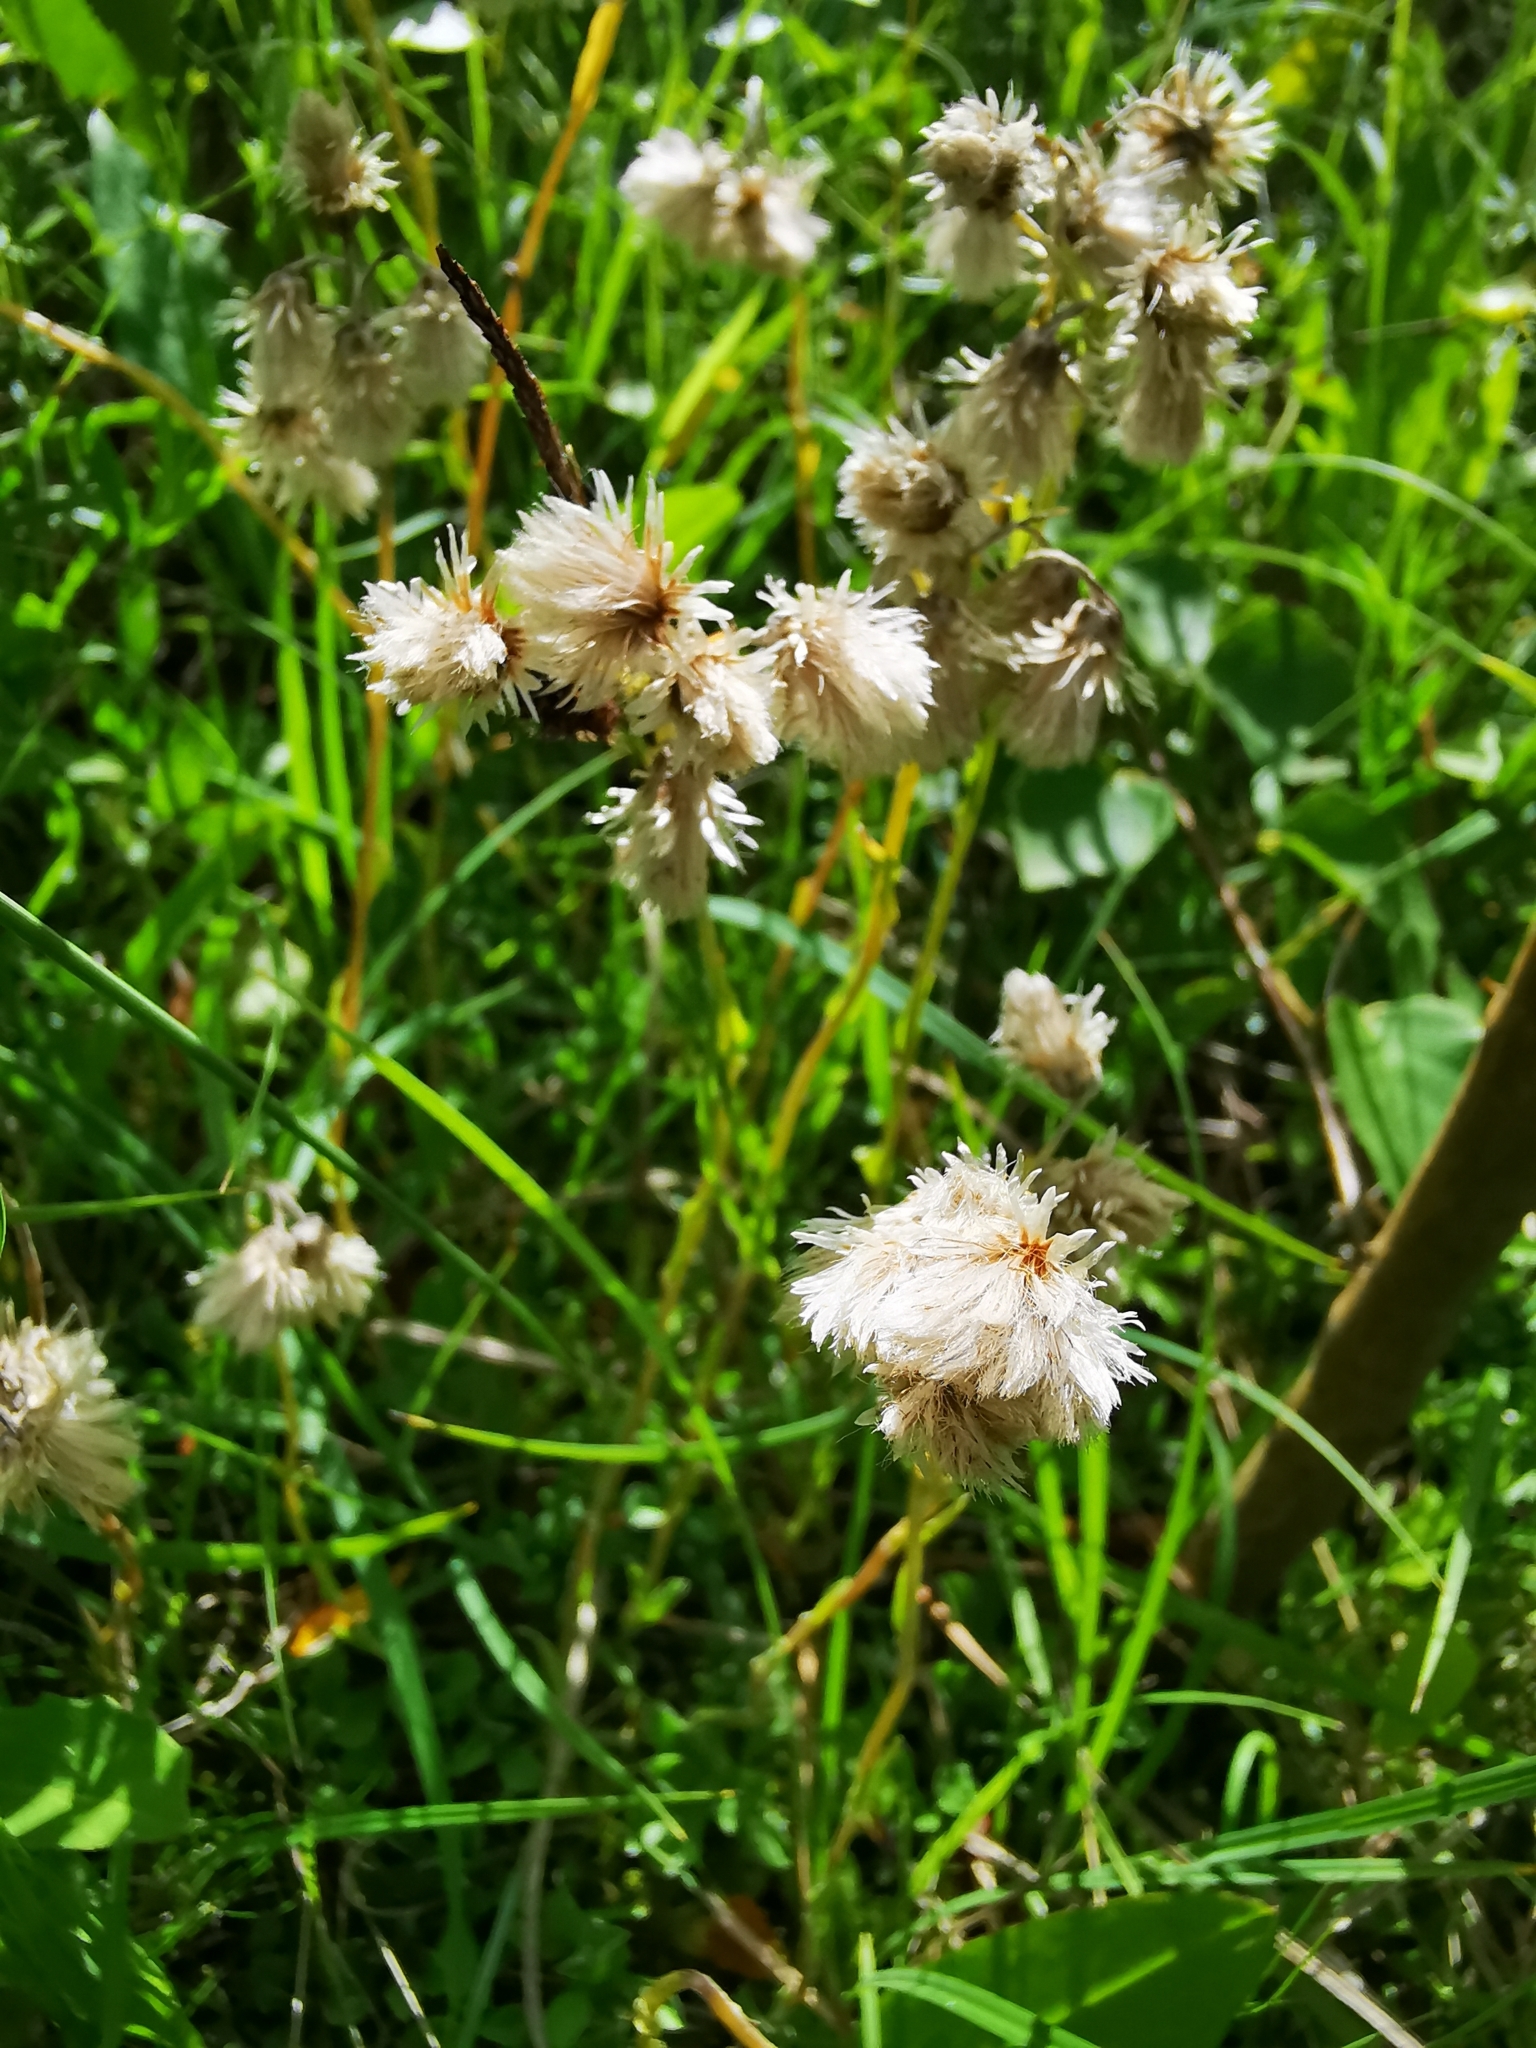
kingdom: Plantae
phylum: Tracheophyta
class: Magnoliopsida
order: Asterales
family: Asteraceae
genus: Antennaria
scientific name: Antennaria dioica
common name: Mountain everlasting
